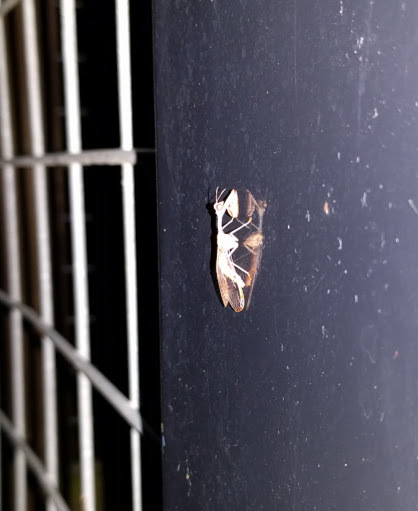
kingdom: Animalia
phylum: Arthropoda
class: Insecta
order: Neuroptera
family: Mantispidae
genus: Dicromantispa
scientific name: Dicromantispa interrupta
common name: Four-spotted mantidfly
